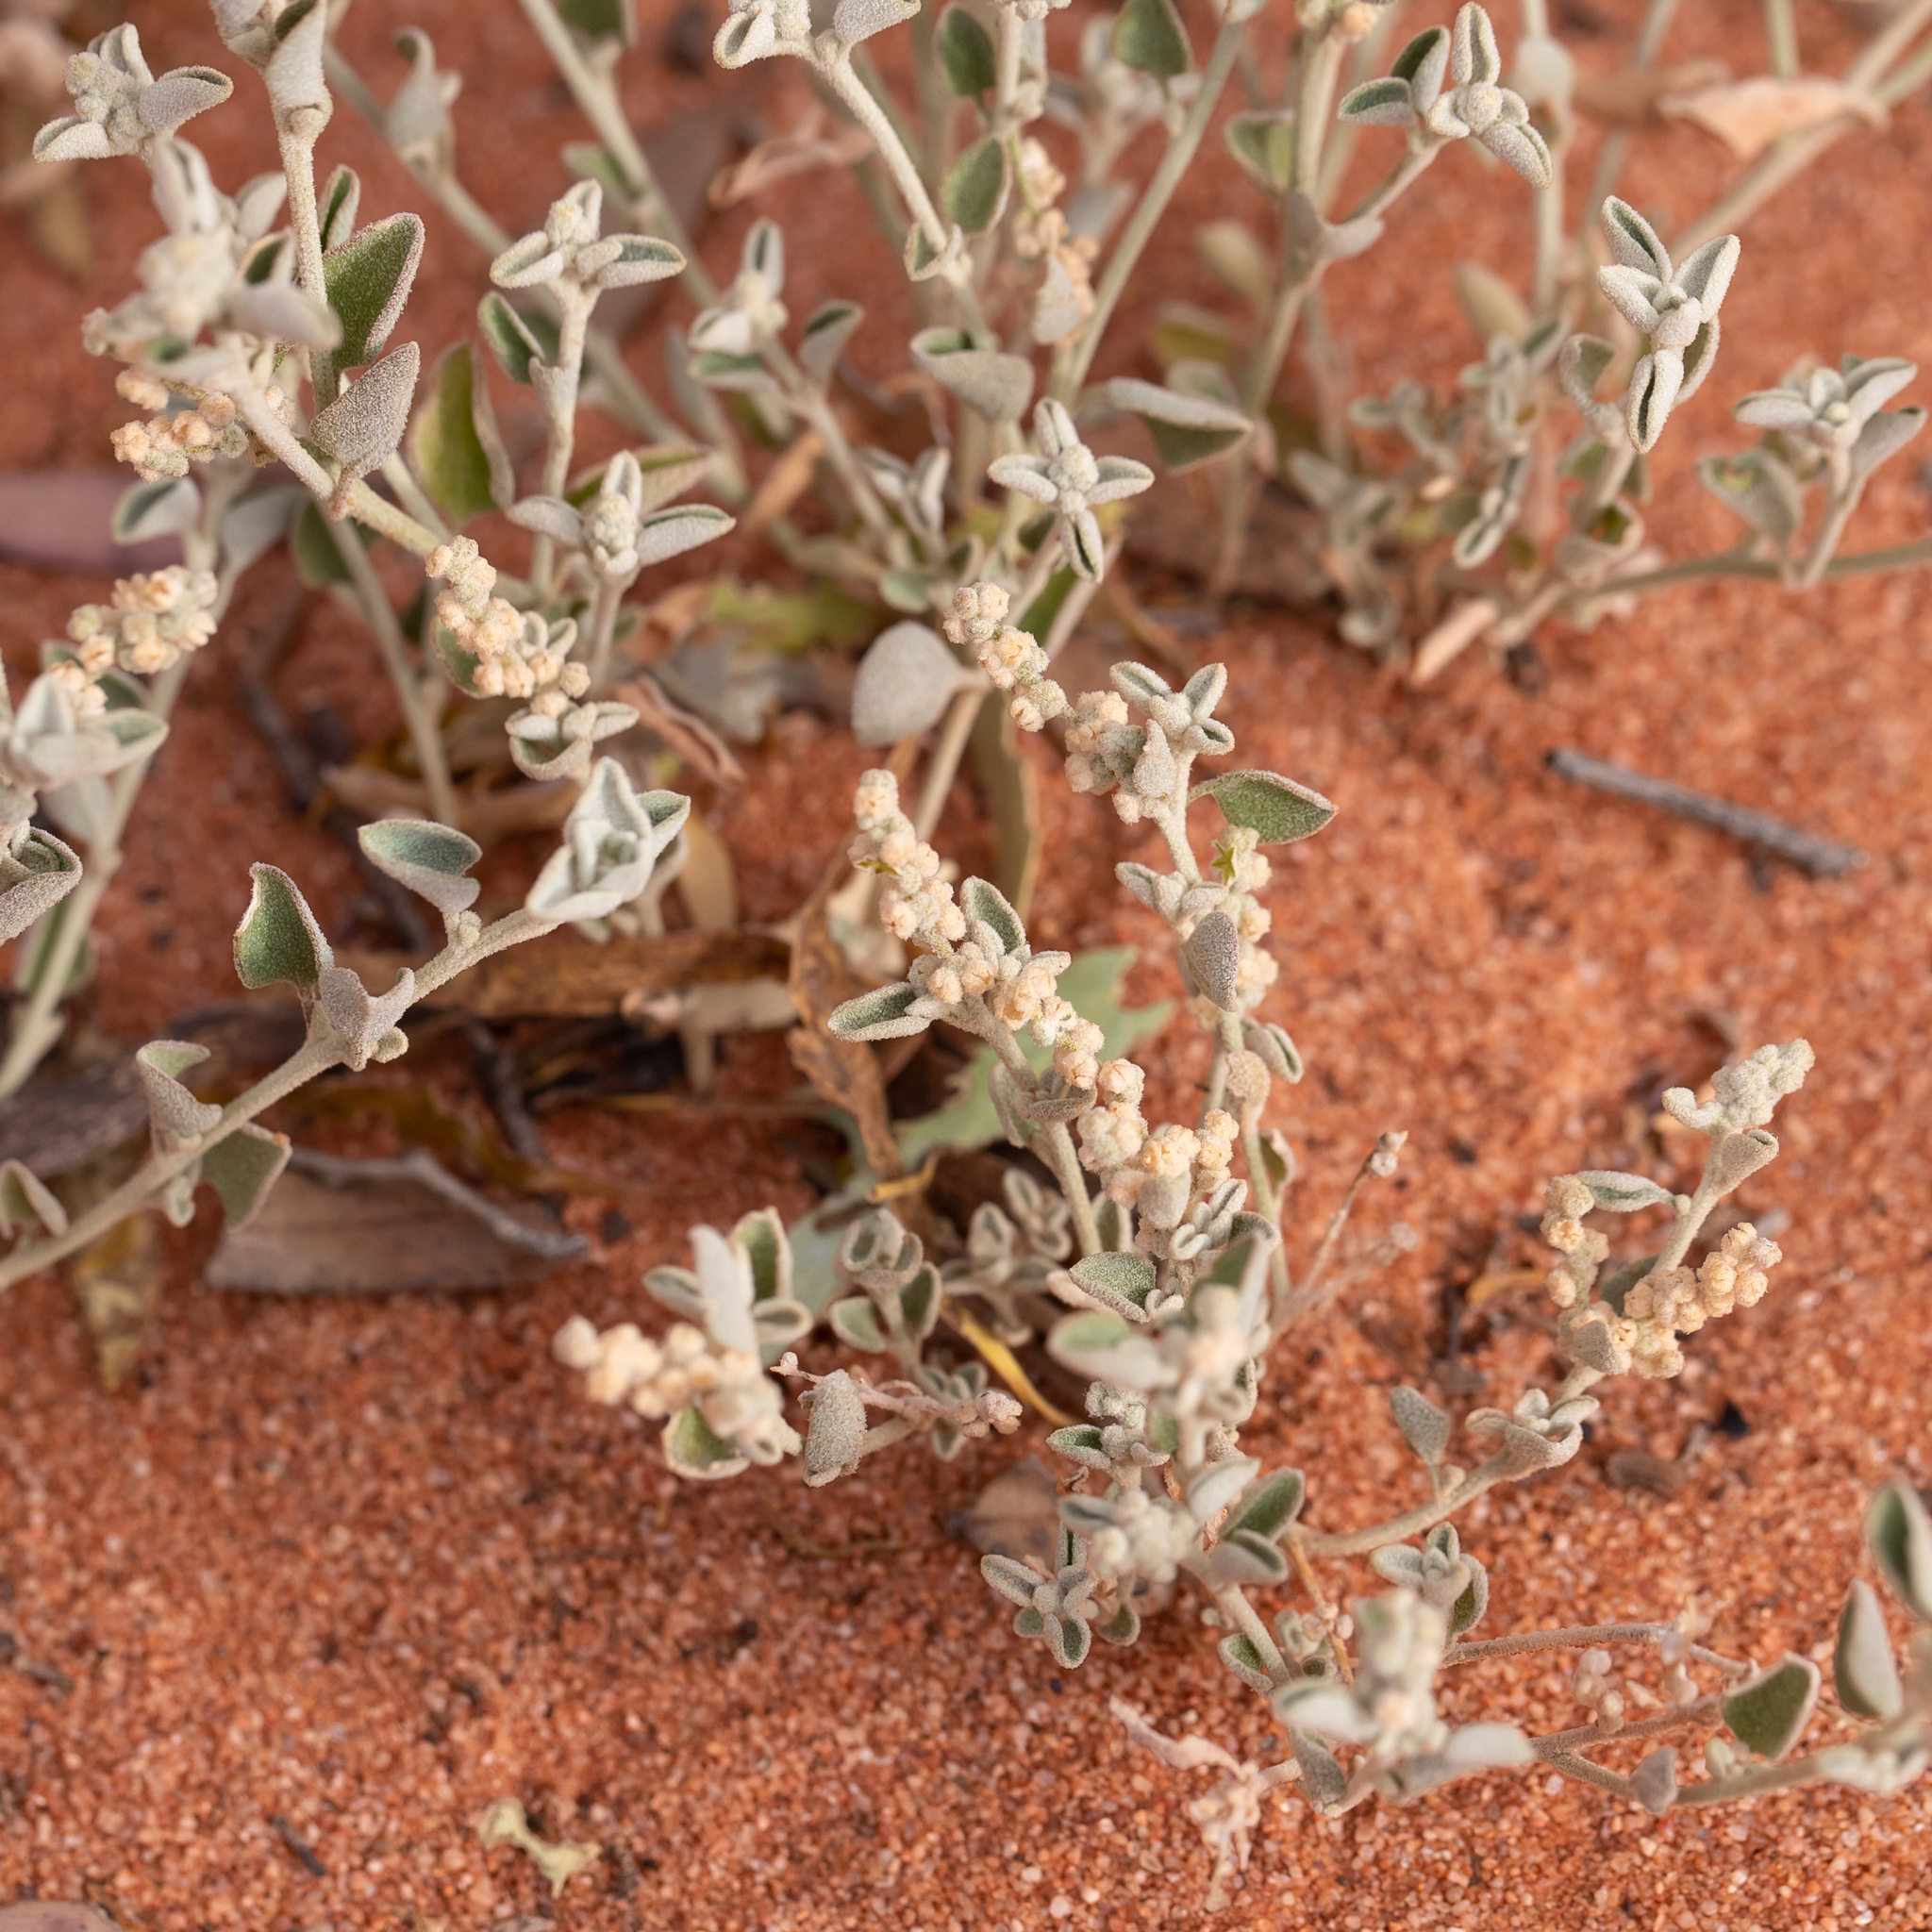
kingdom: Plantae
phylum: Tracheophyta
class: Magnoliopsida
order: Caryophyllales
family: Amaranthaceae
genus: Chenopodium
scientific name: Chenopodium desertorum
